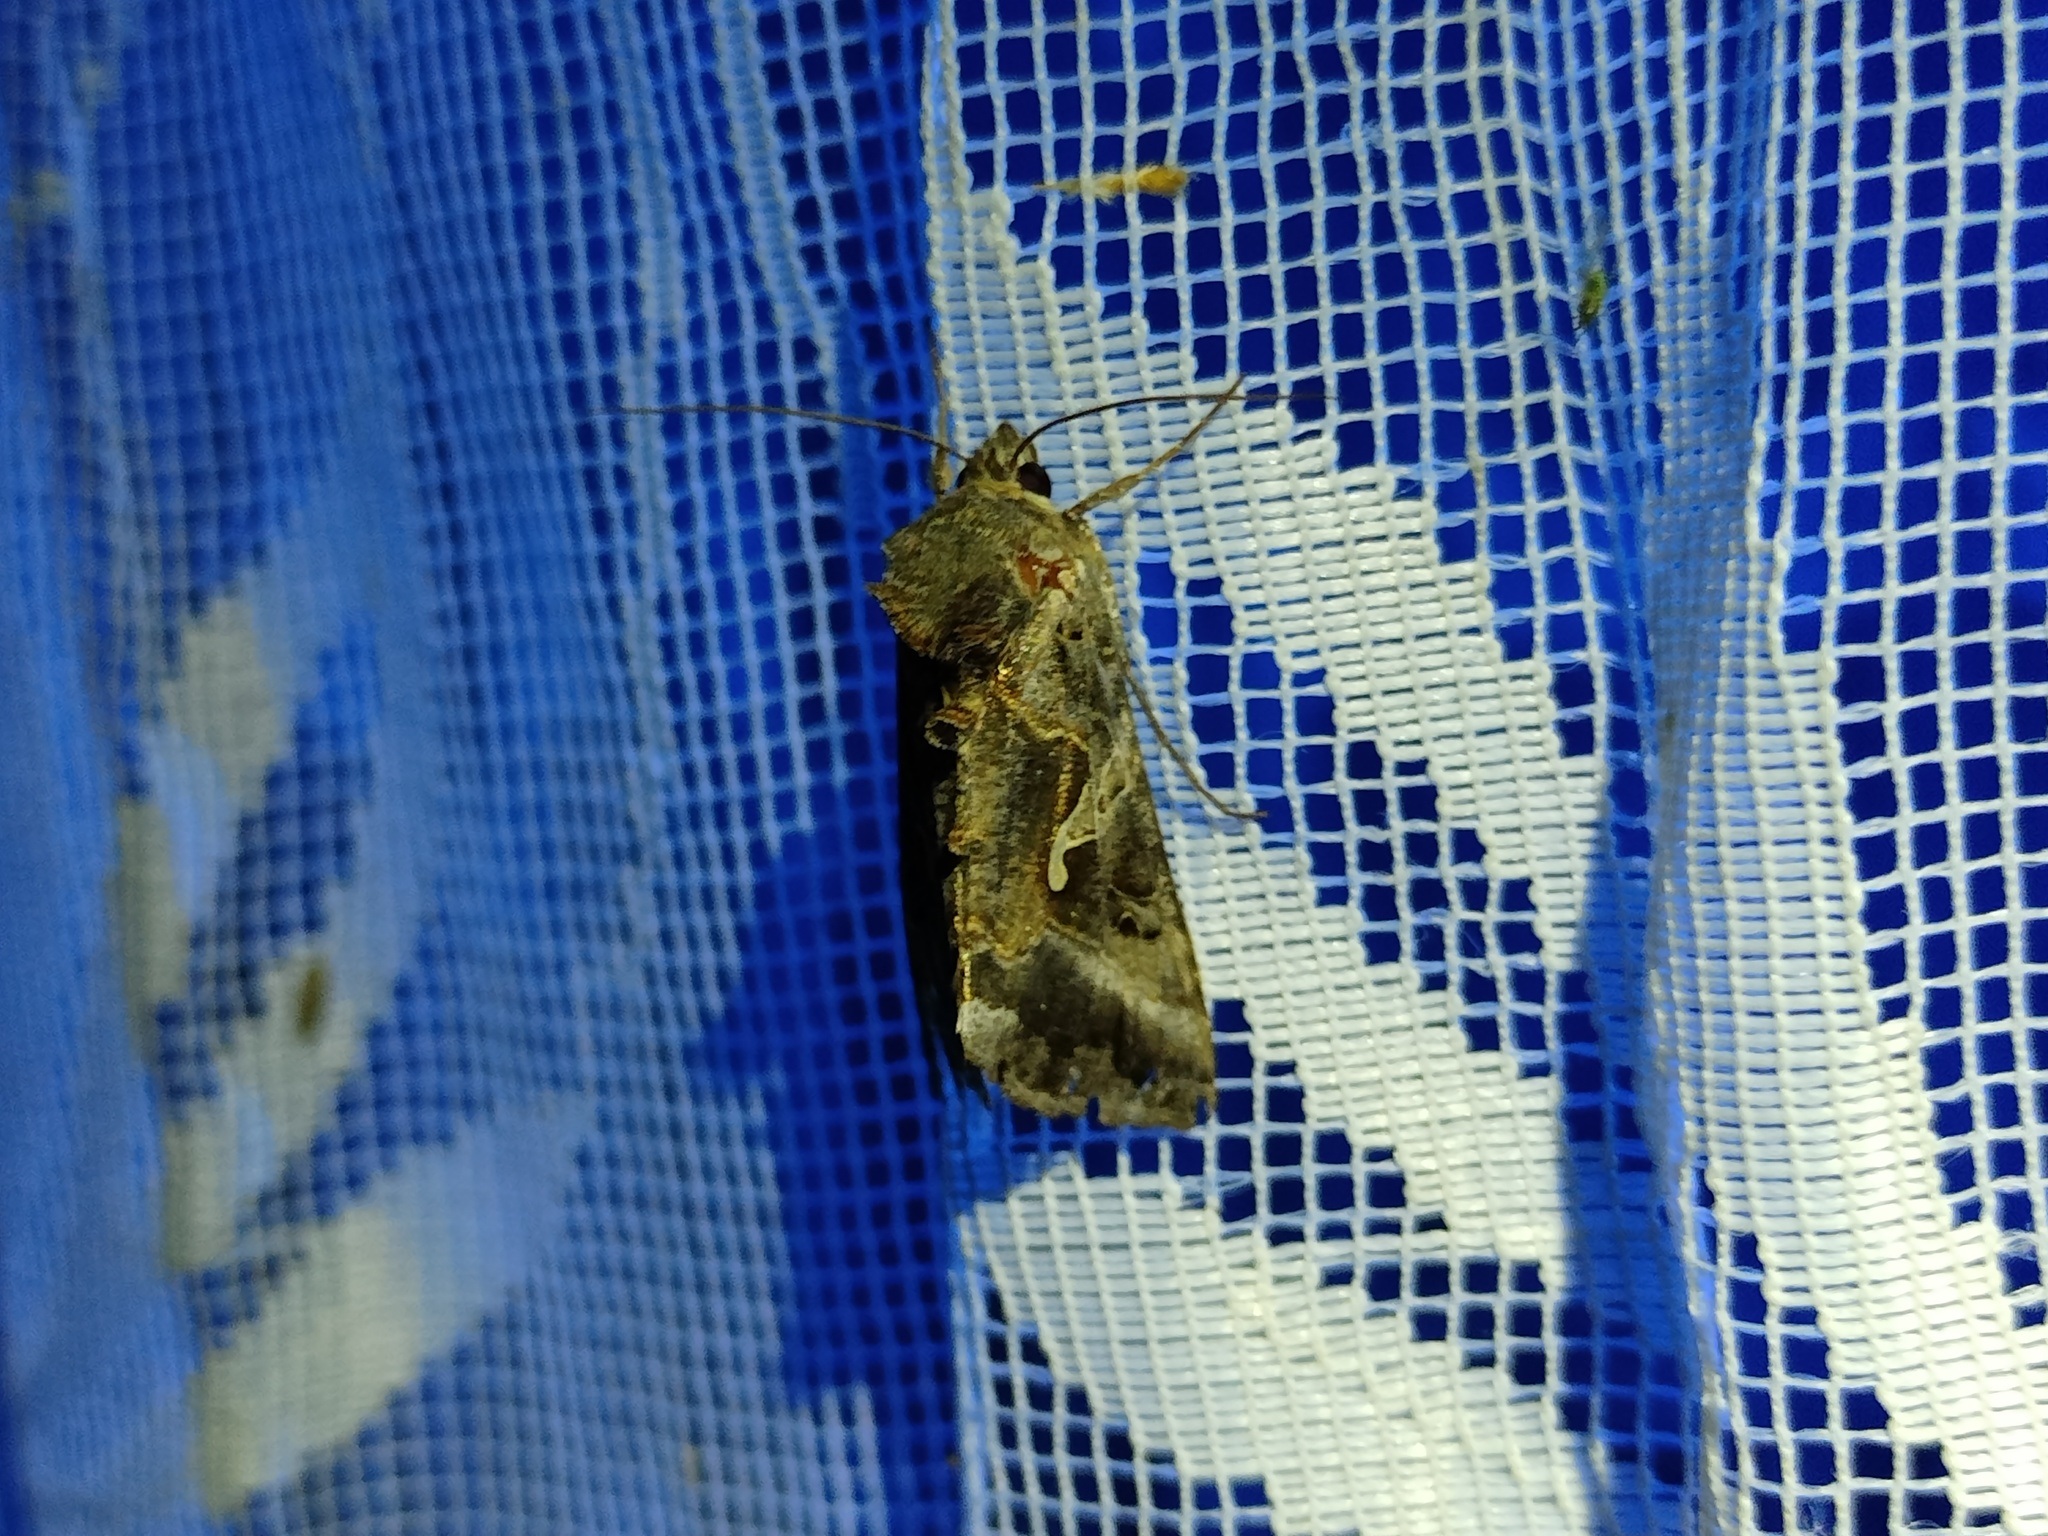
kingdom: Animalia
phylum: Arthropoda
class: Insecta
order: Lepidoptera
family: Noctuidae
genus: Autographa
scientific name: Autographa gamma
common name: Silver y
